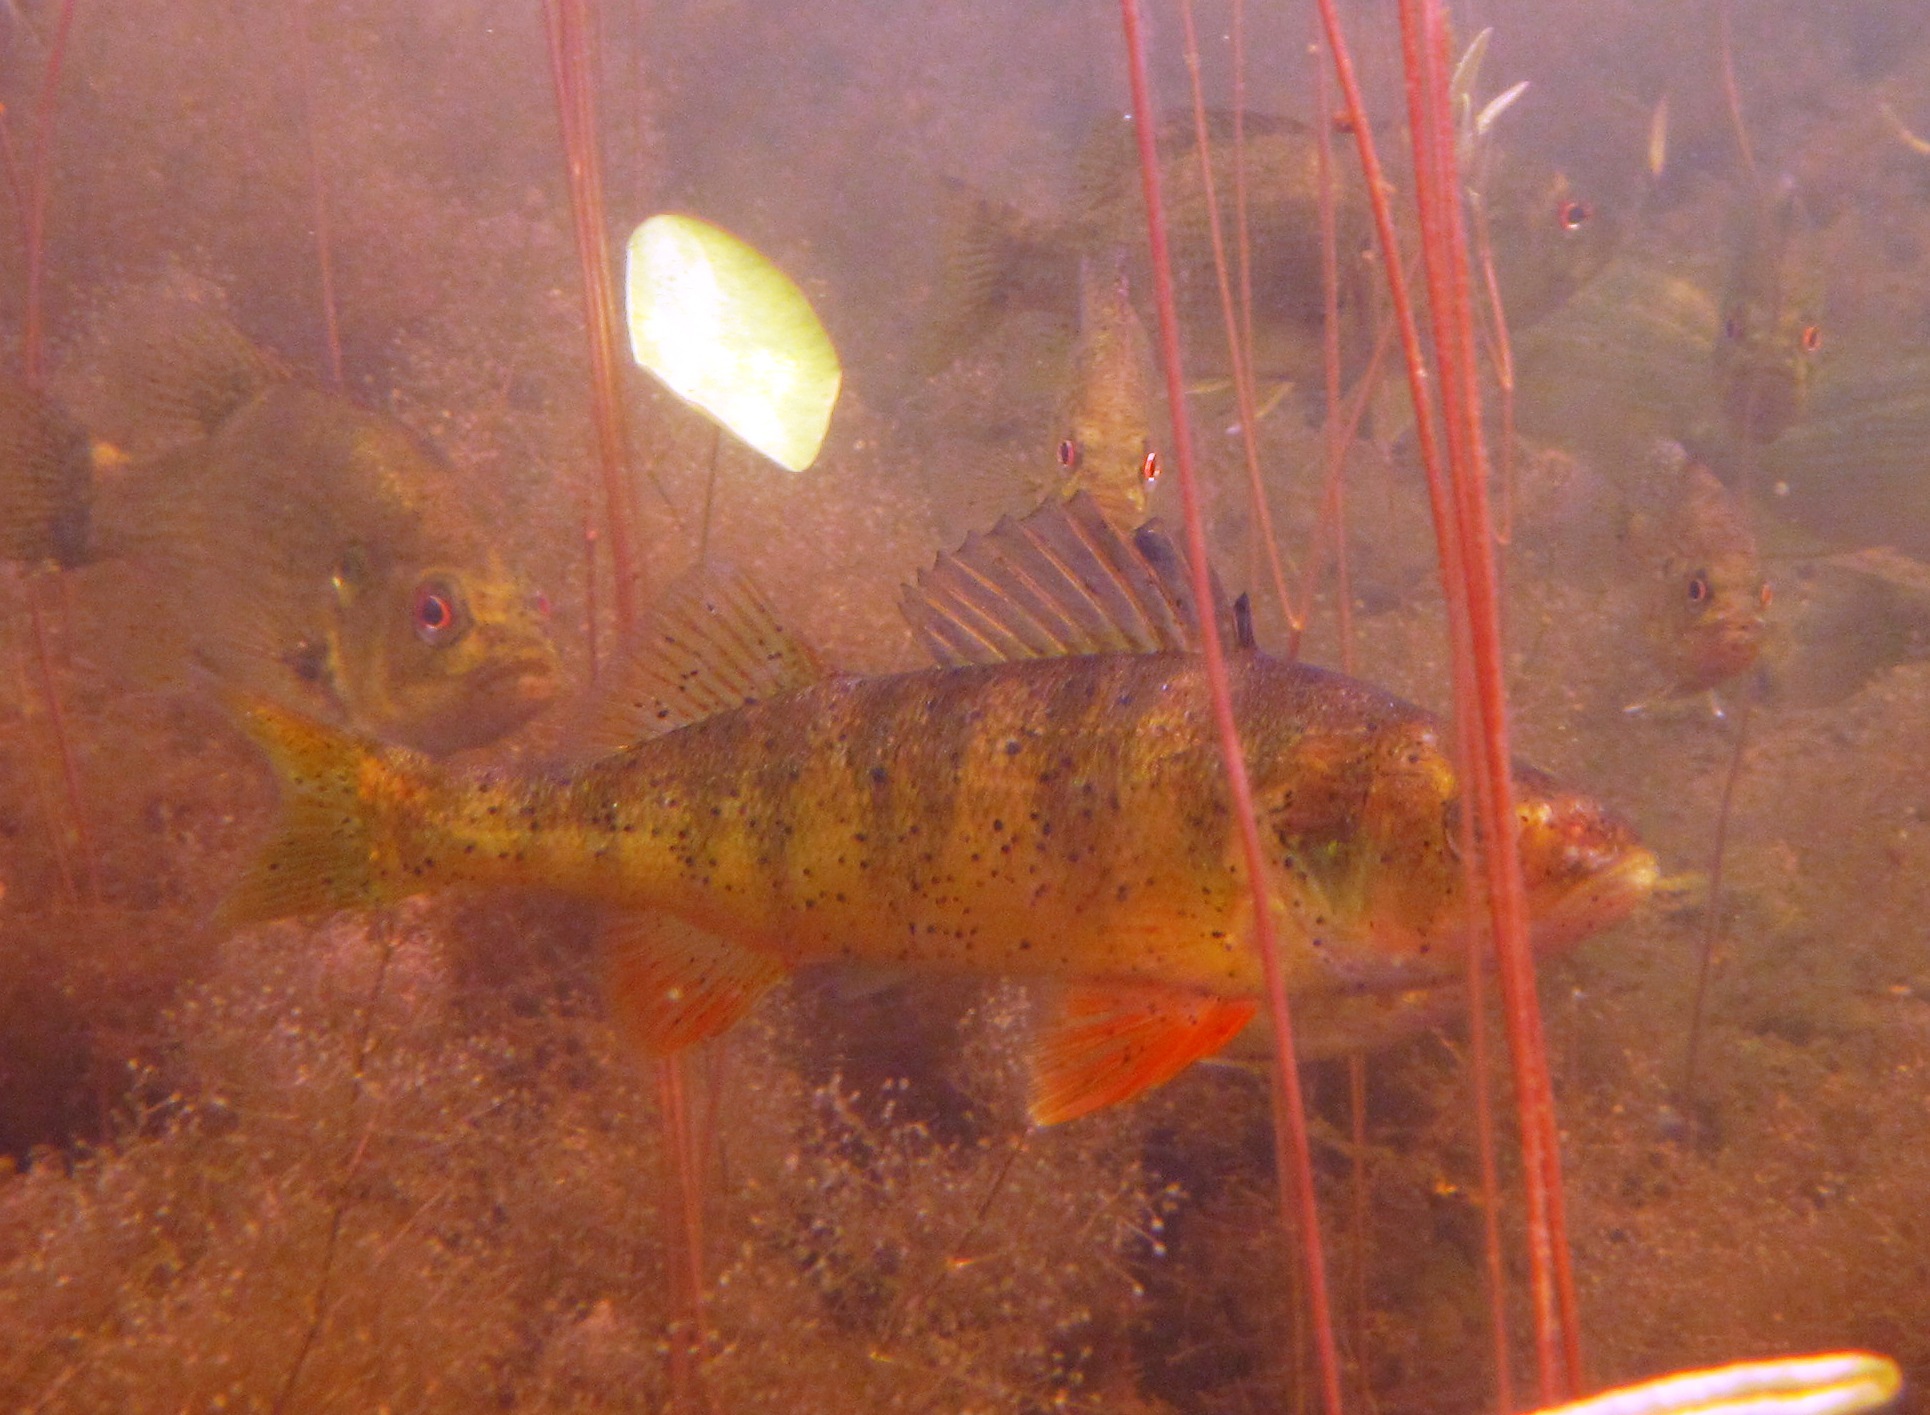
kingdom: Animalia
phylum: Chordata
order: Perciformes
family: Percidae
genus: Perca
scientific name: Perca flavescens
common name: Yellow perch
